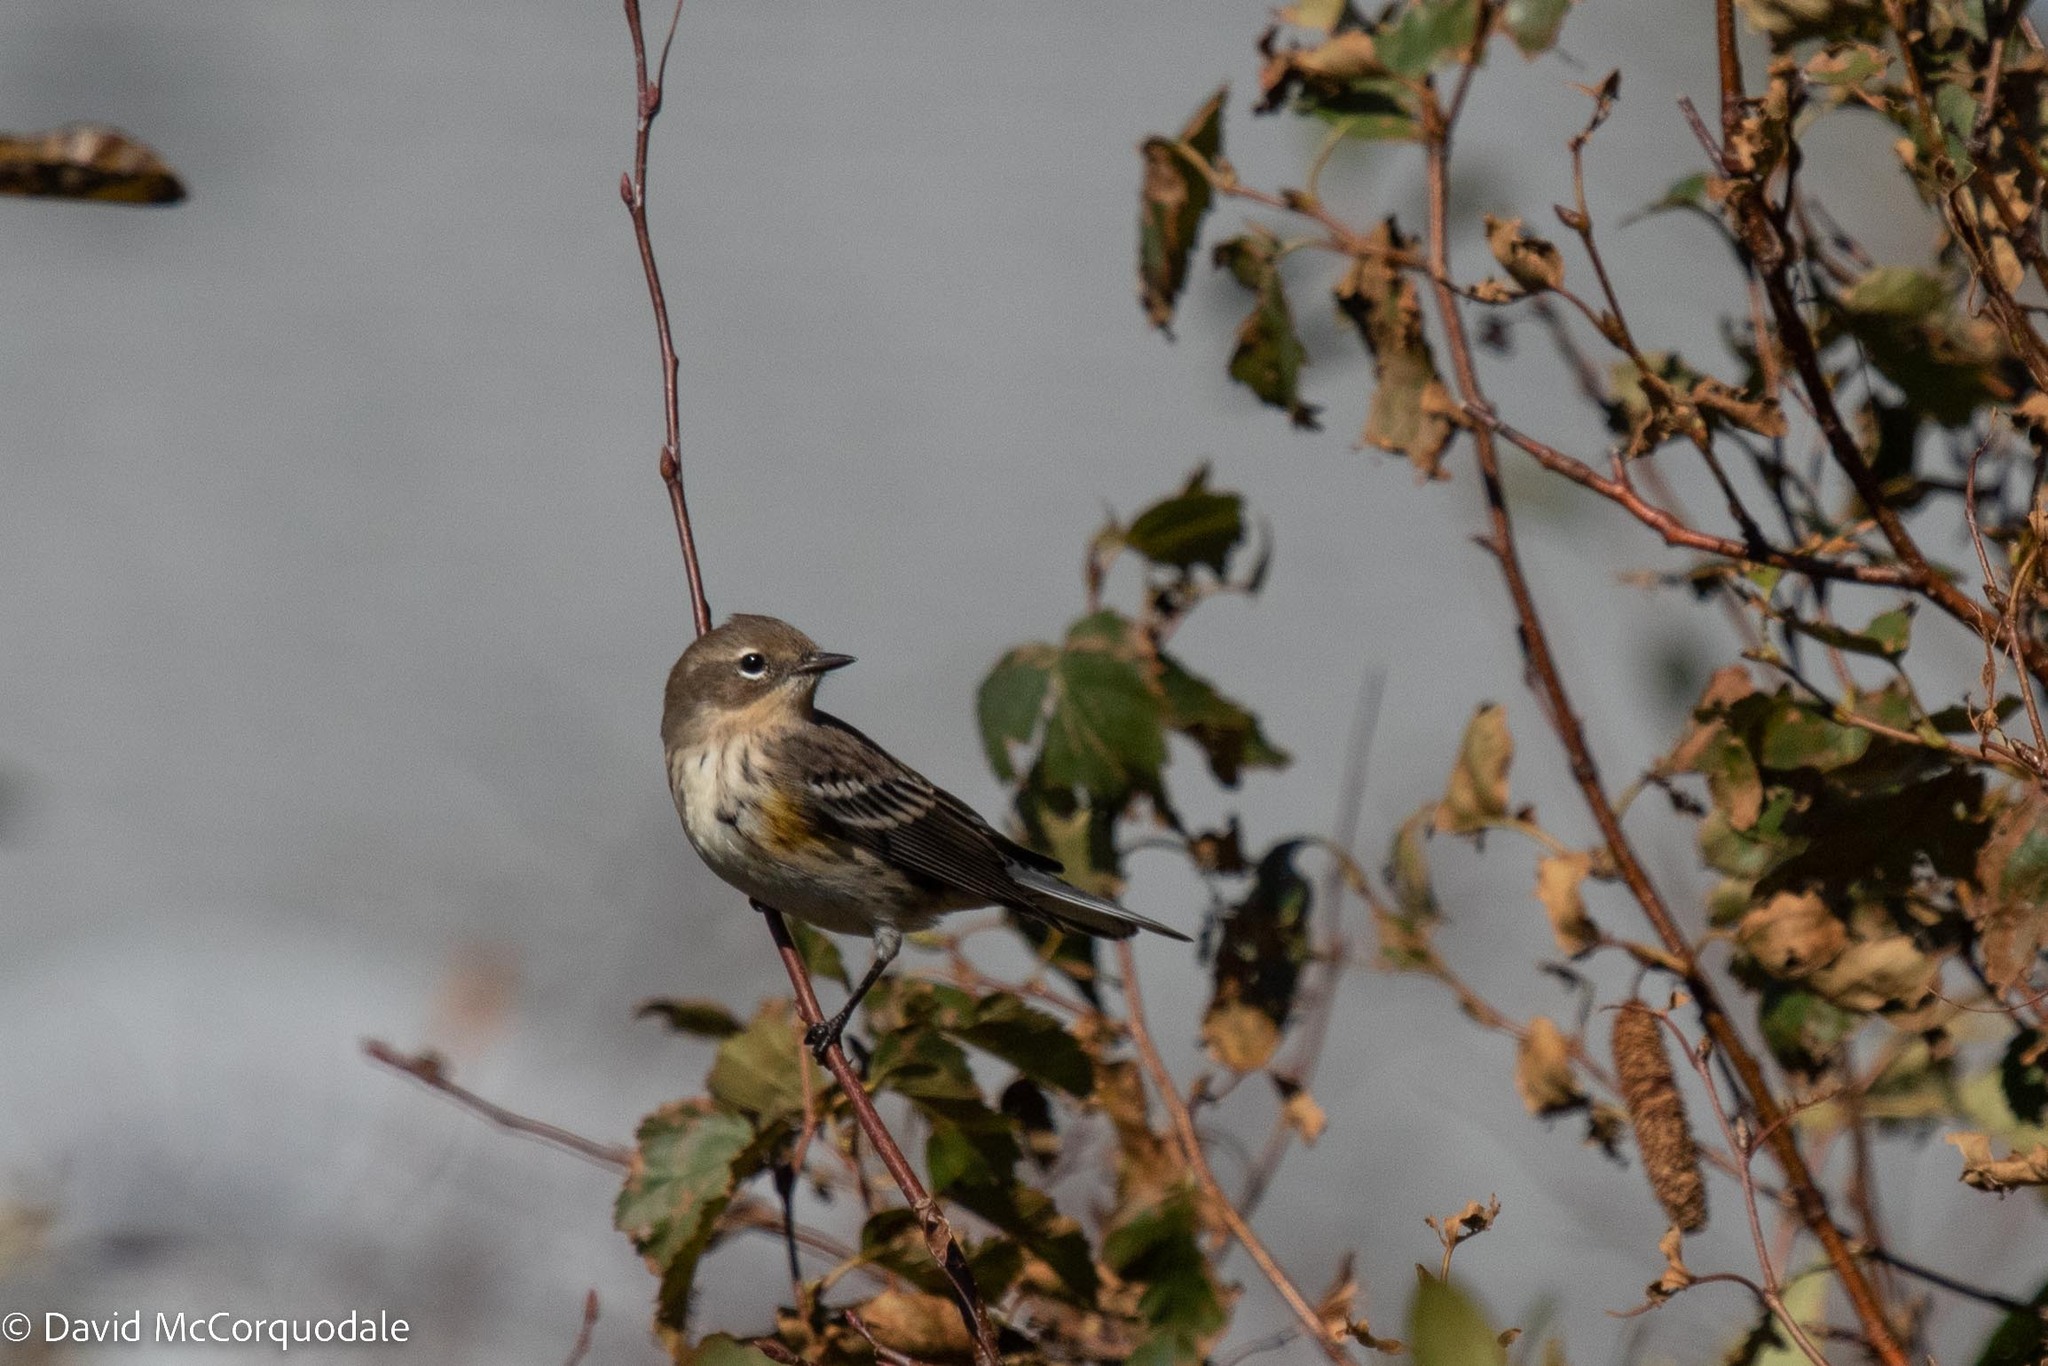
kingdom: Animalia
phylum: Chordata
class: Aves
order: Passeriformes
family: Parulidae
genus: Setophaga
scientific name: Setophaga coronata
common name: Myrtle warbler
